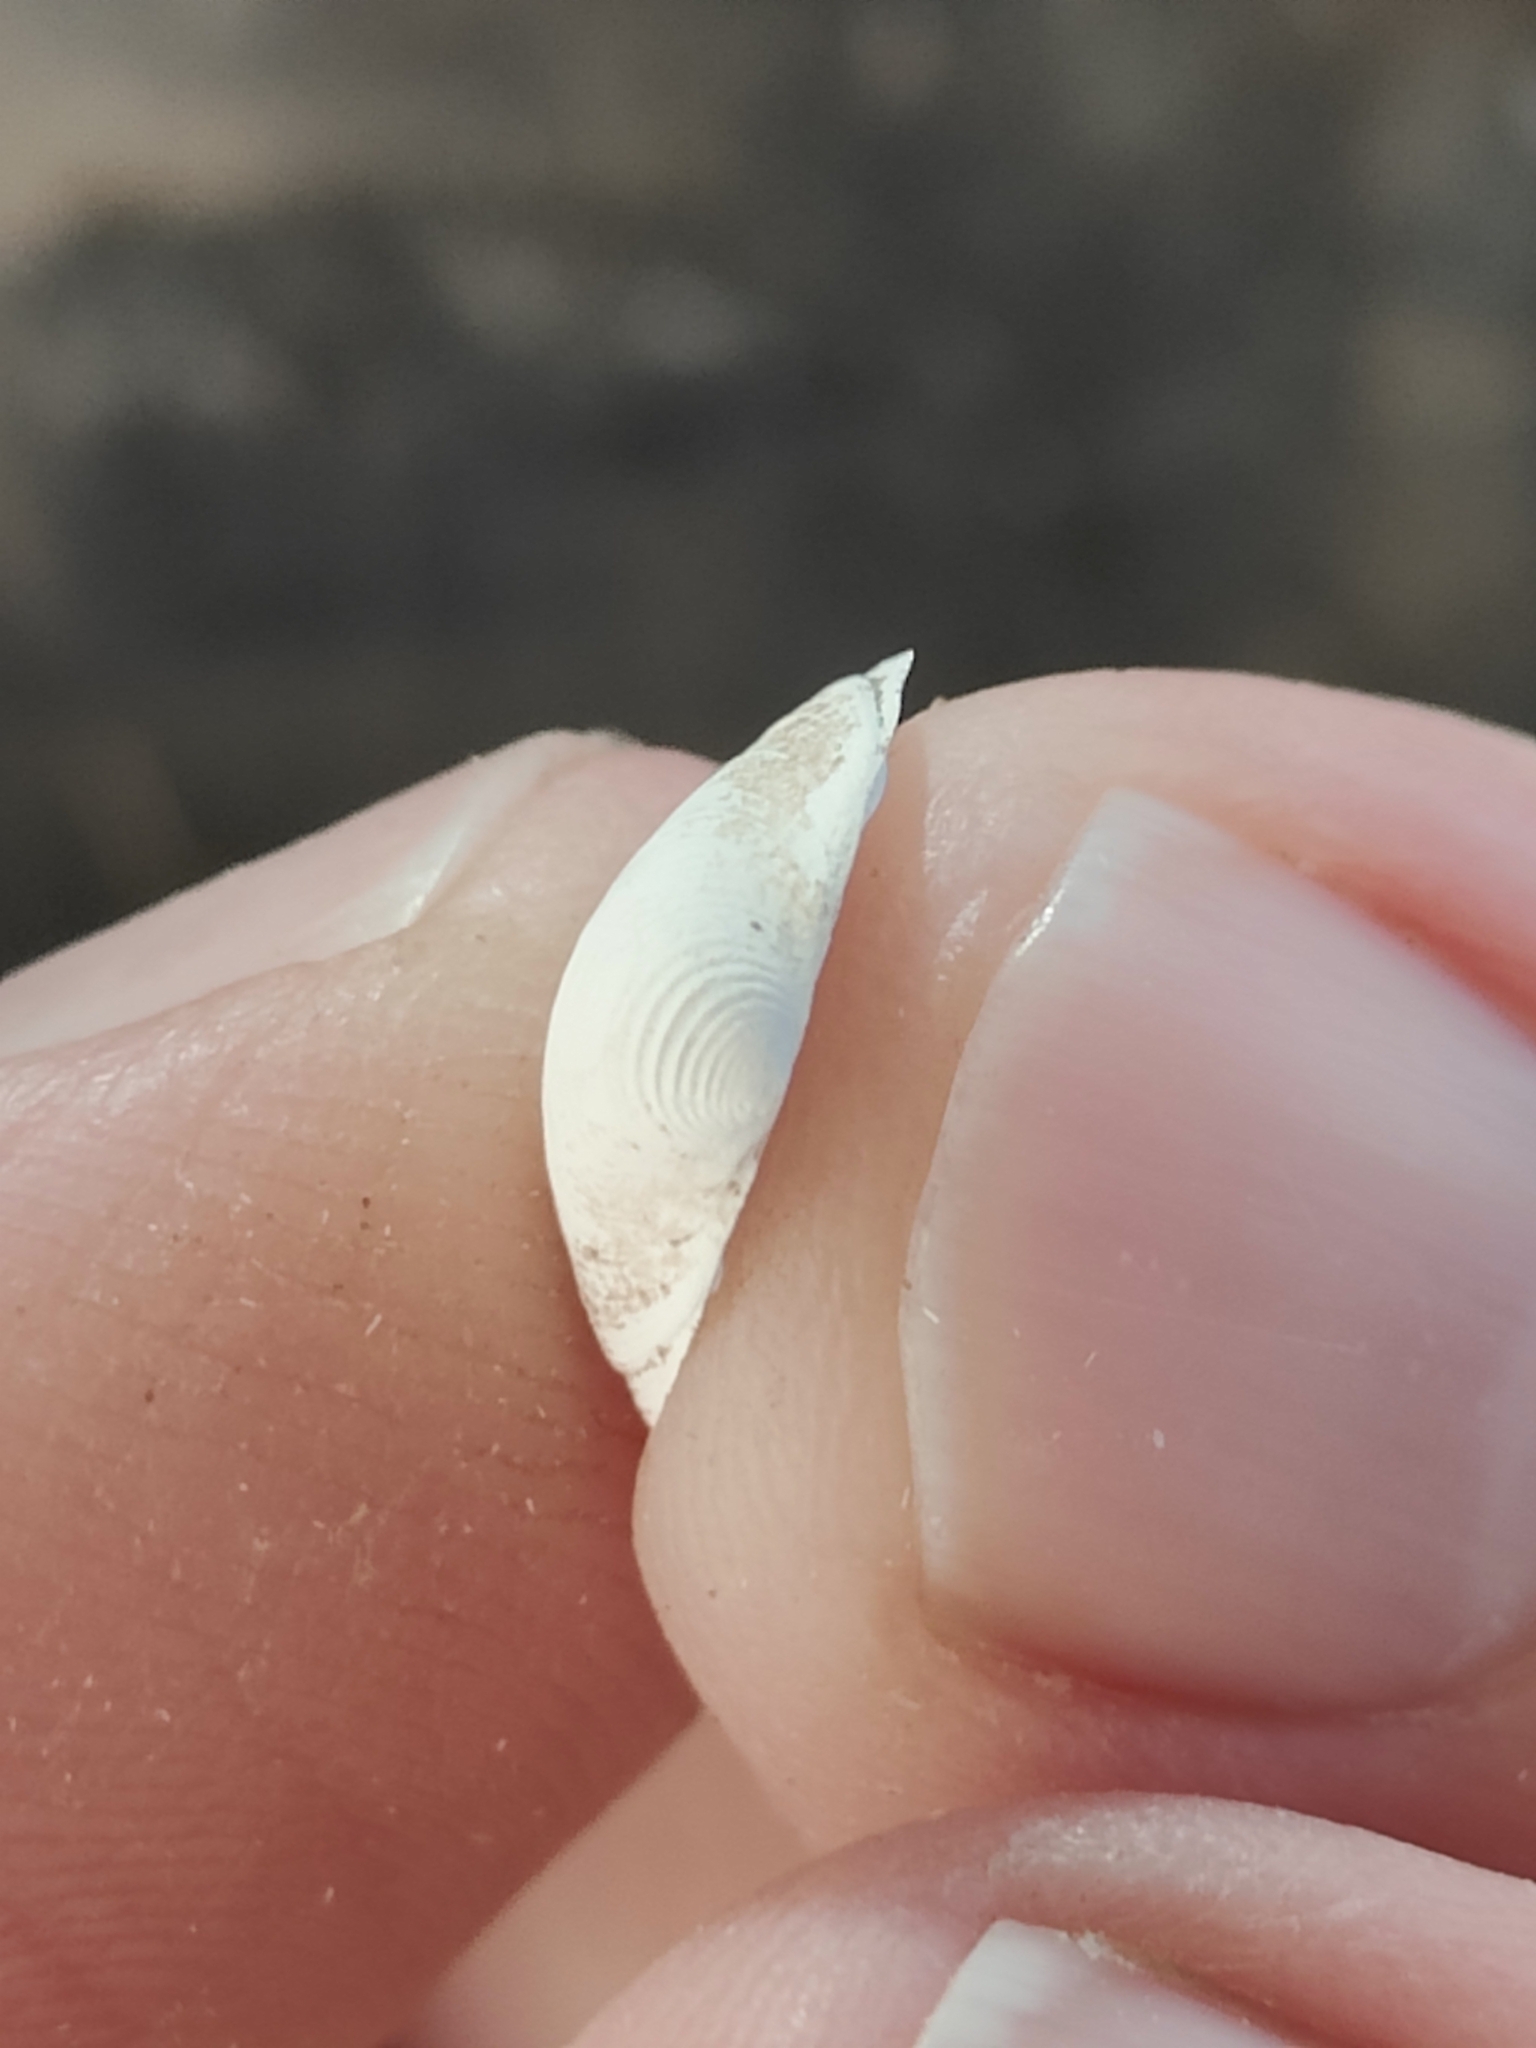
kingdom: Animalia
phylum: Mollusca
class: Bivalvia
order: Sphaeriida
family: Sphaeriidae
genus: Sphaerium
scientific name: Sphaerium striatinum
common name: Striated fingernailclam
